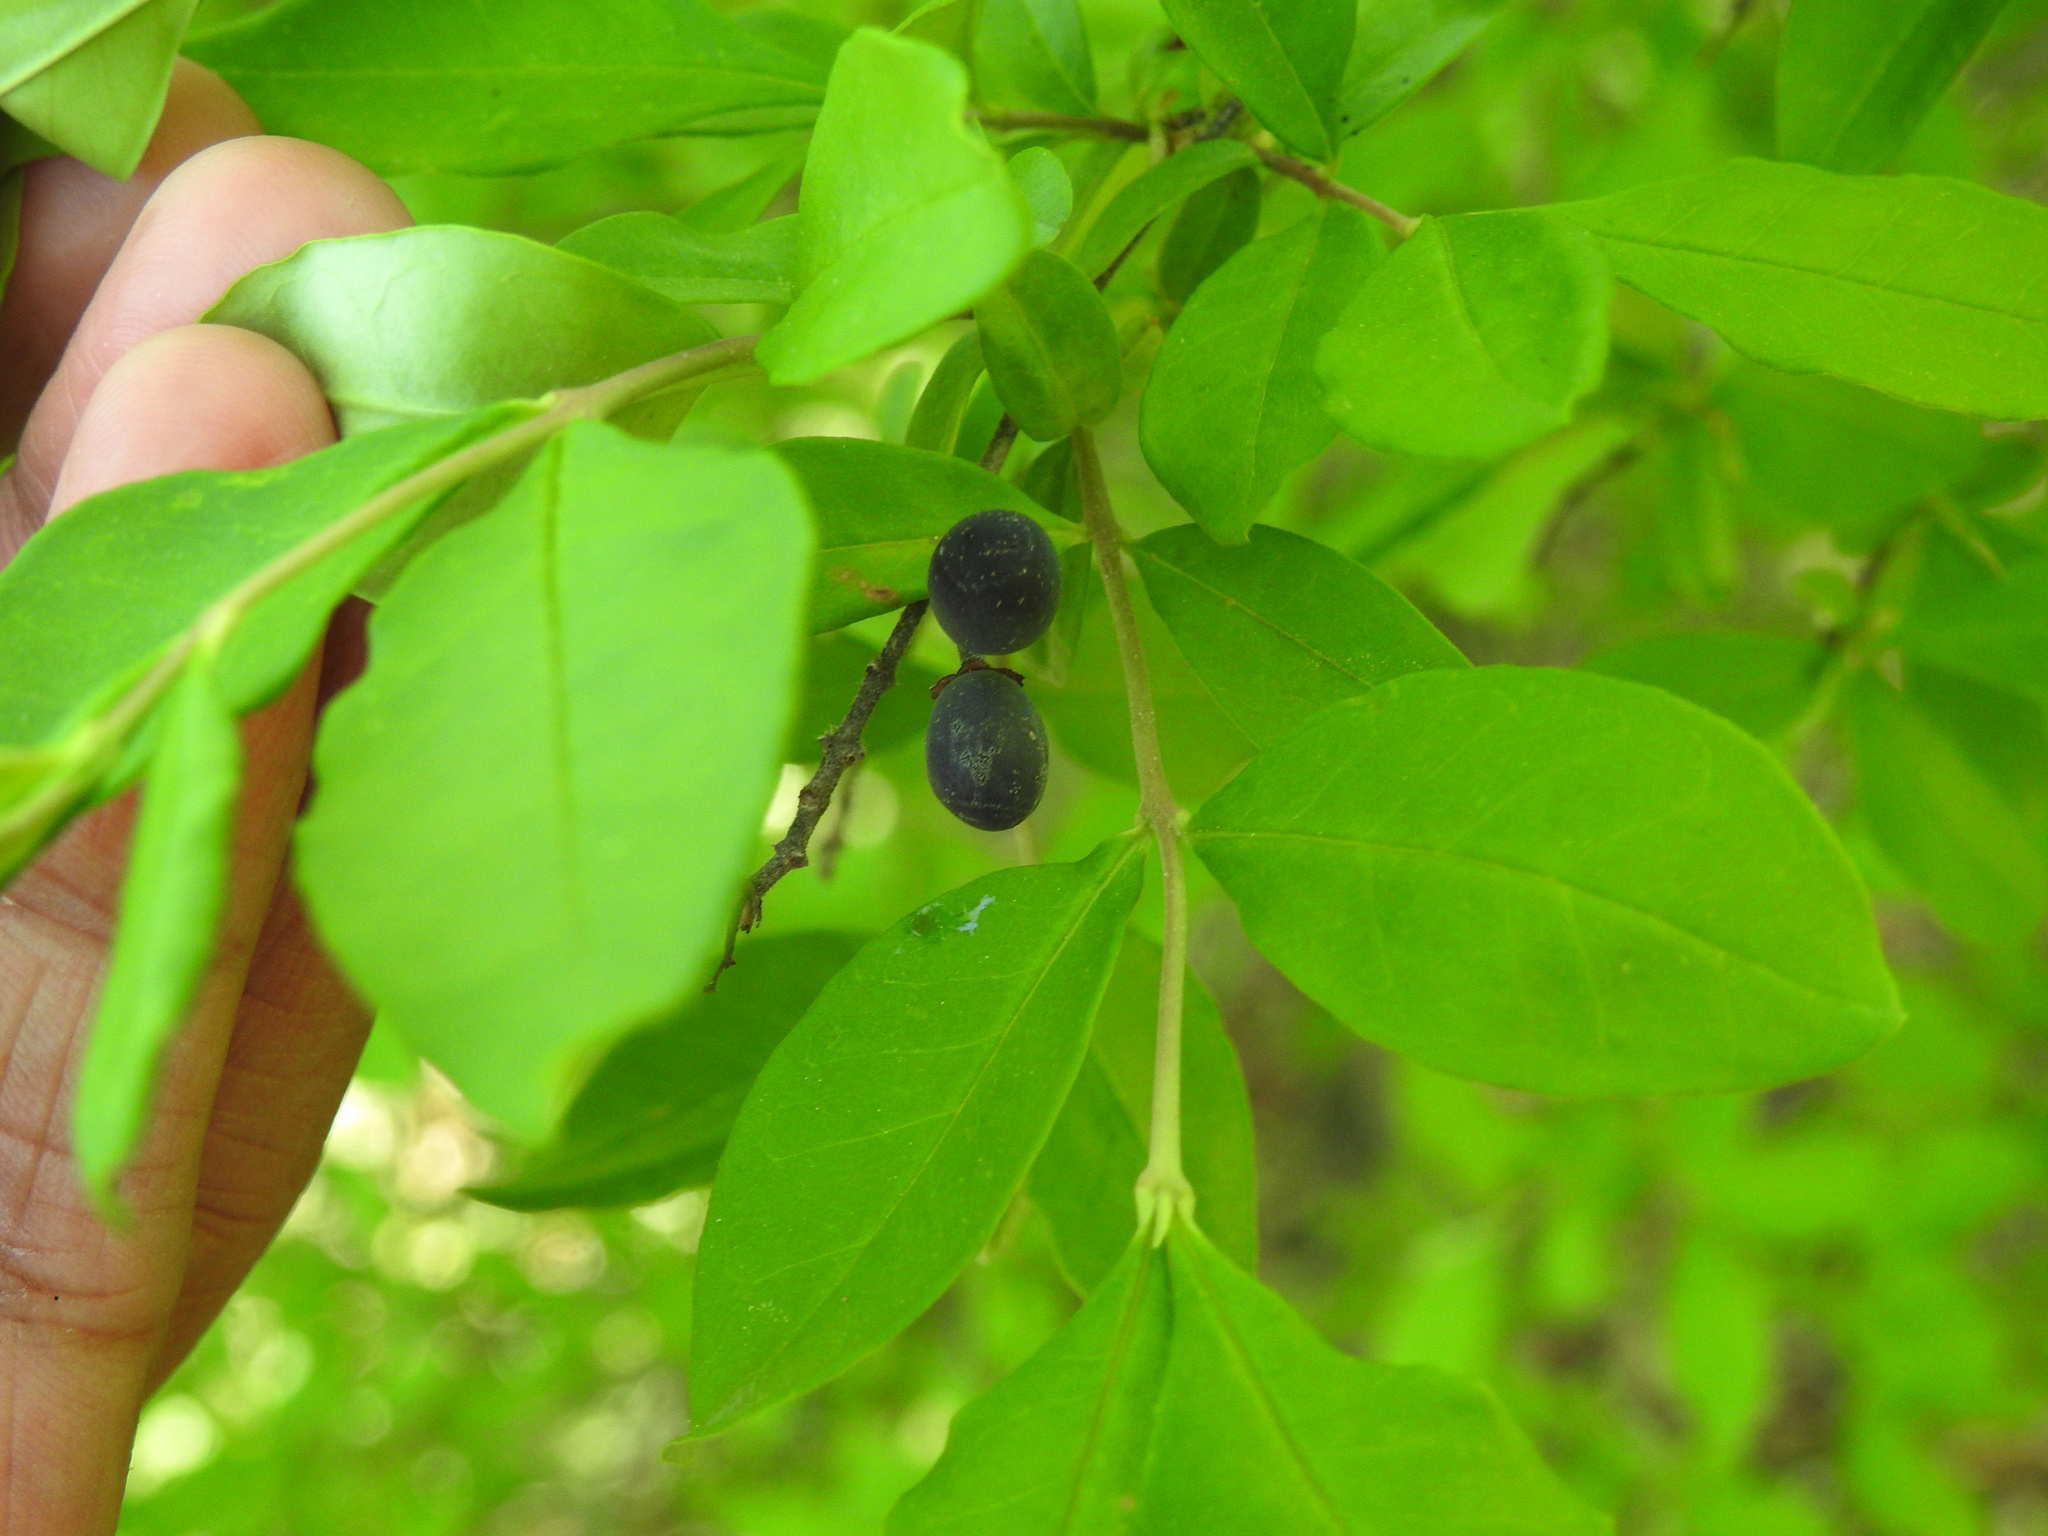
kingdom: Plantae
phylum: Tracheophyta
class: Magnoliopsida
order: Lamiales
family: Oleaceae
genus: Ligustrum
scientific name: Ligustrum obtusifolium
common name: Border privet
